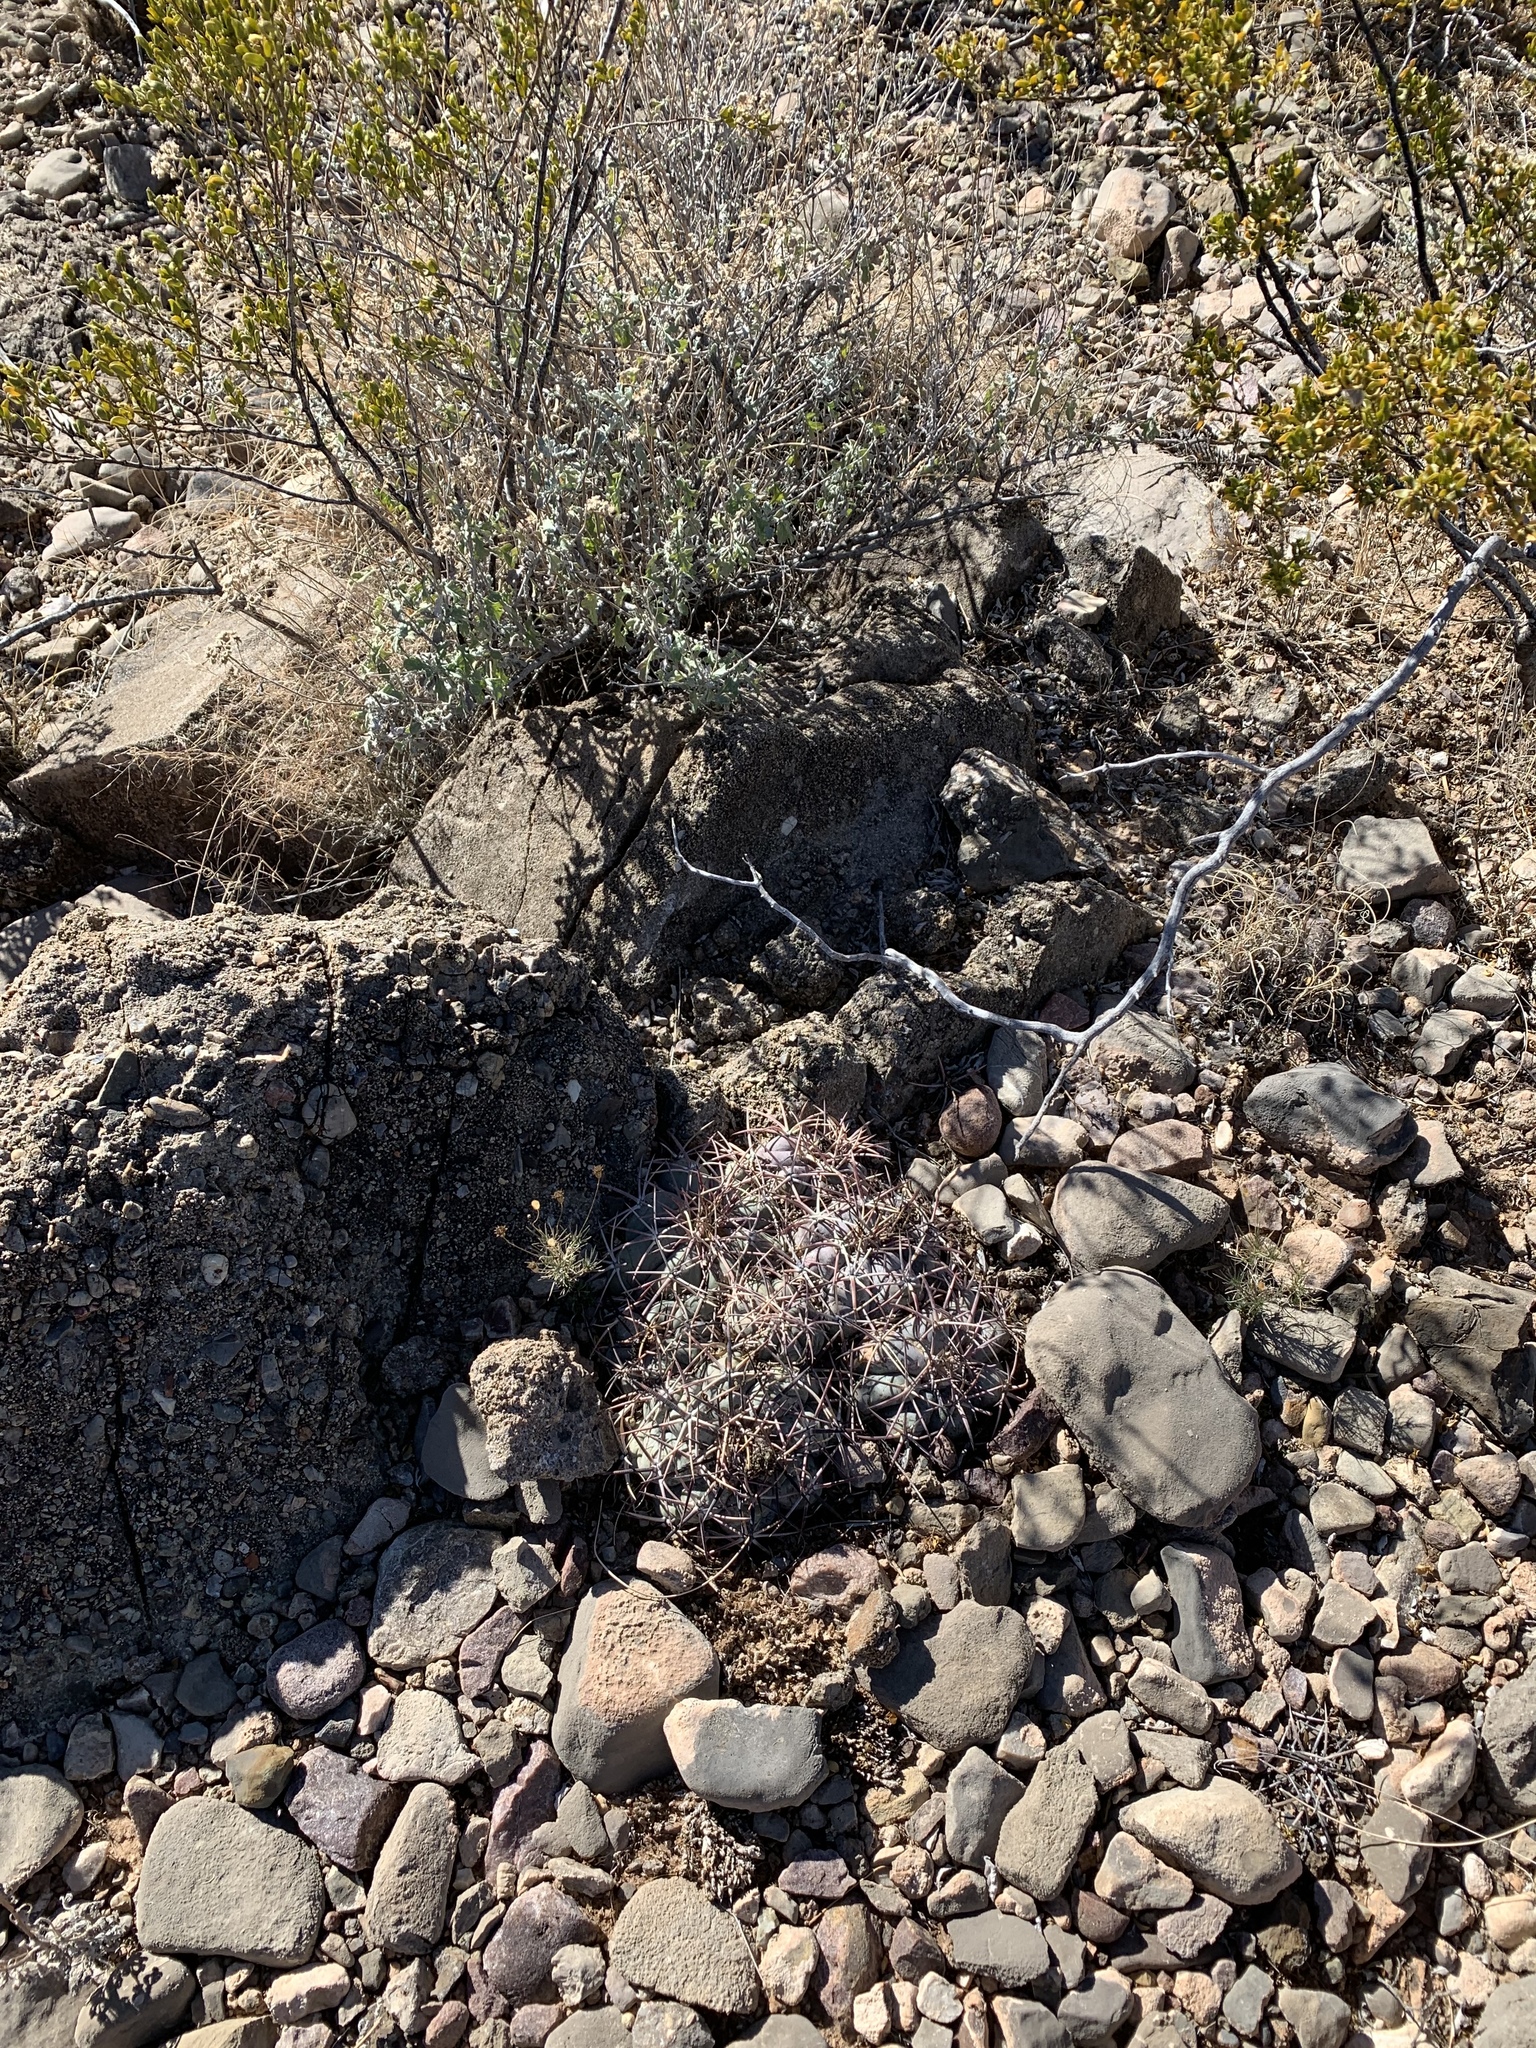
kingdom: Plantae
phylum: Tracheophyta
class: Magnoliopsida
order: Caryophyllales
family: Cactaceae
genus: Echinocactus
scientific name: Echinocactus horizonthalonius
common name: Devilshead
